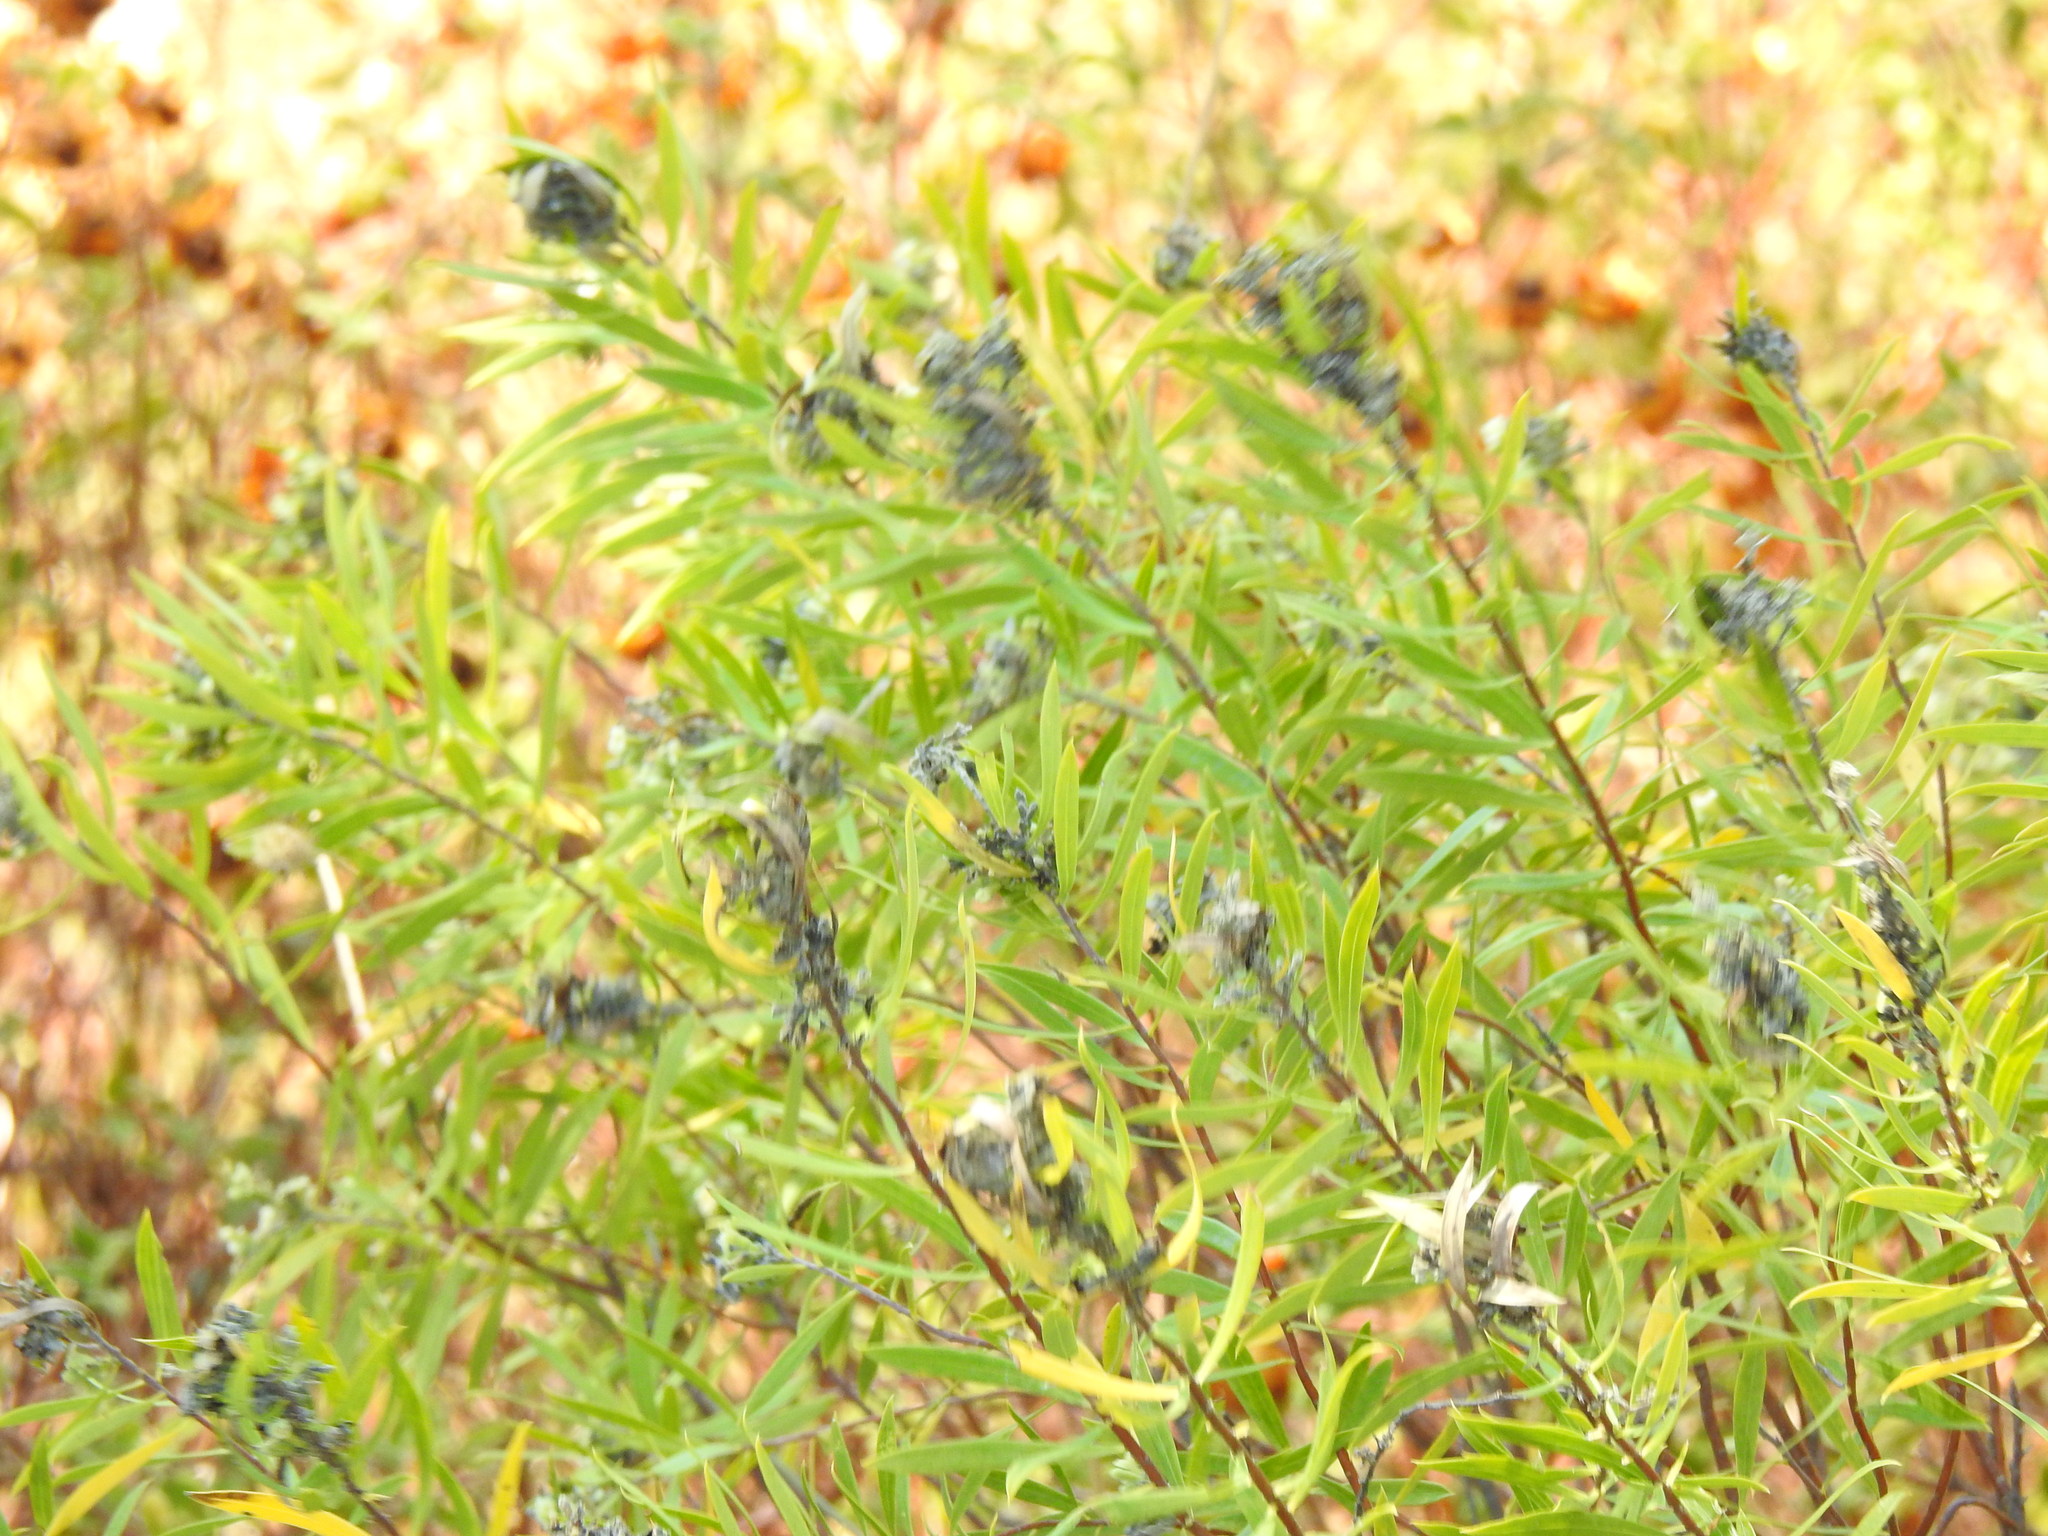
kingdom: Plantae
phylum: Tracheophyta
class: Magnoliopsida
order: Malvales
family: Thymelaeaceae
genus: Daphne
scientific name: Daphne gnidium
